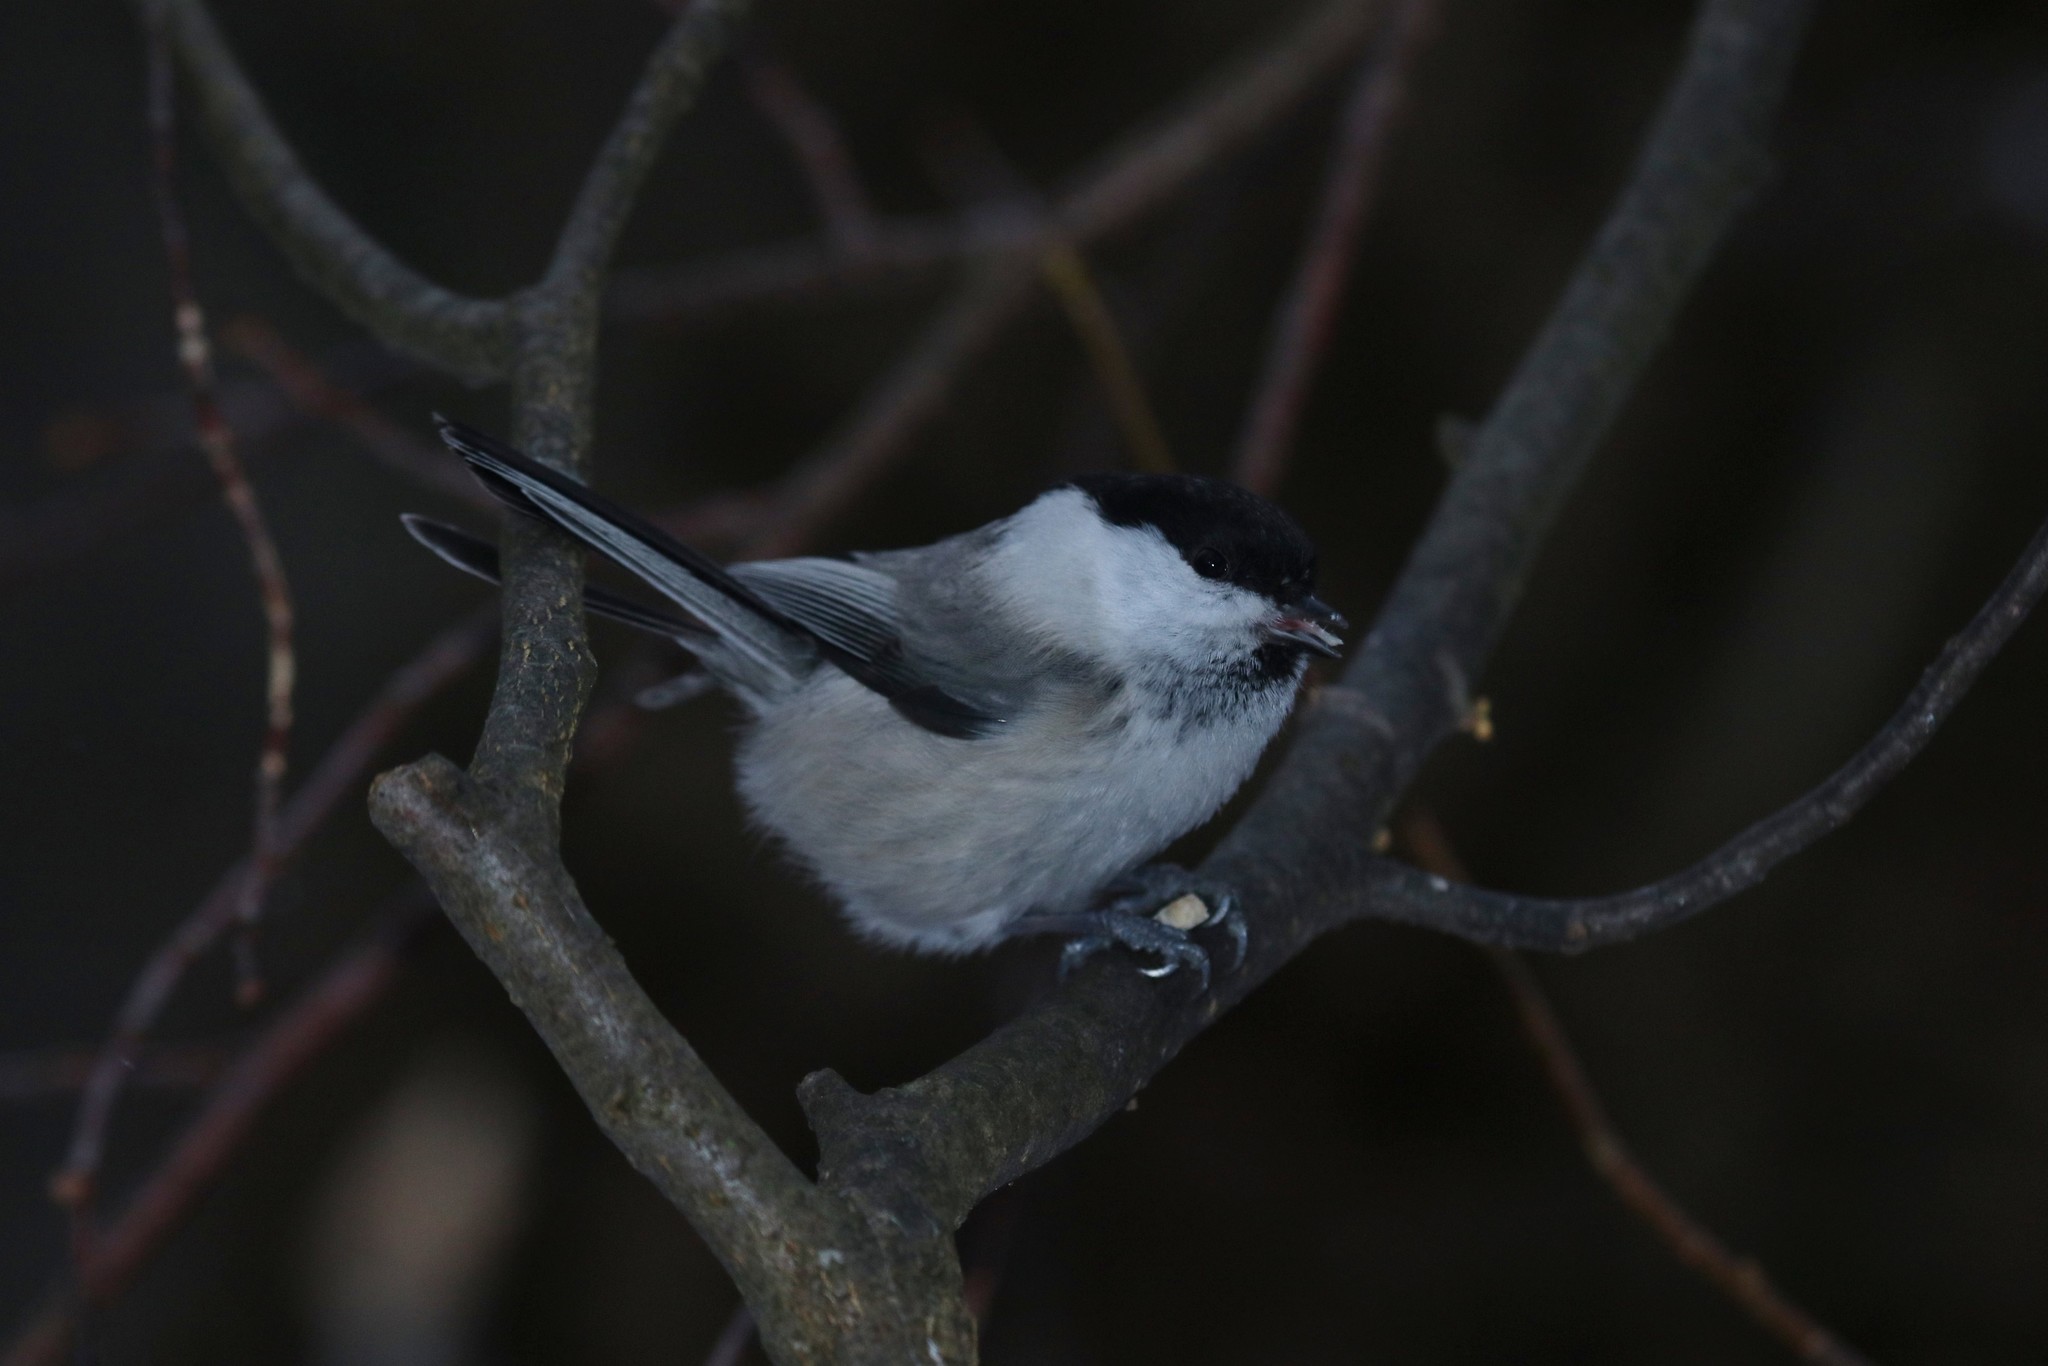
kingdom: Animalia
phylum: Chordata
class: Aves
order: Passeriformes
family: Paridae
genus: Poecile
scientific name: Poecile montanus
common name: Willow tit
